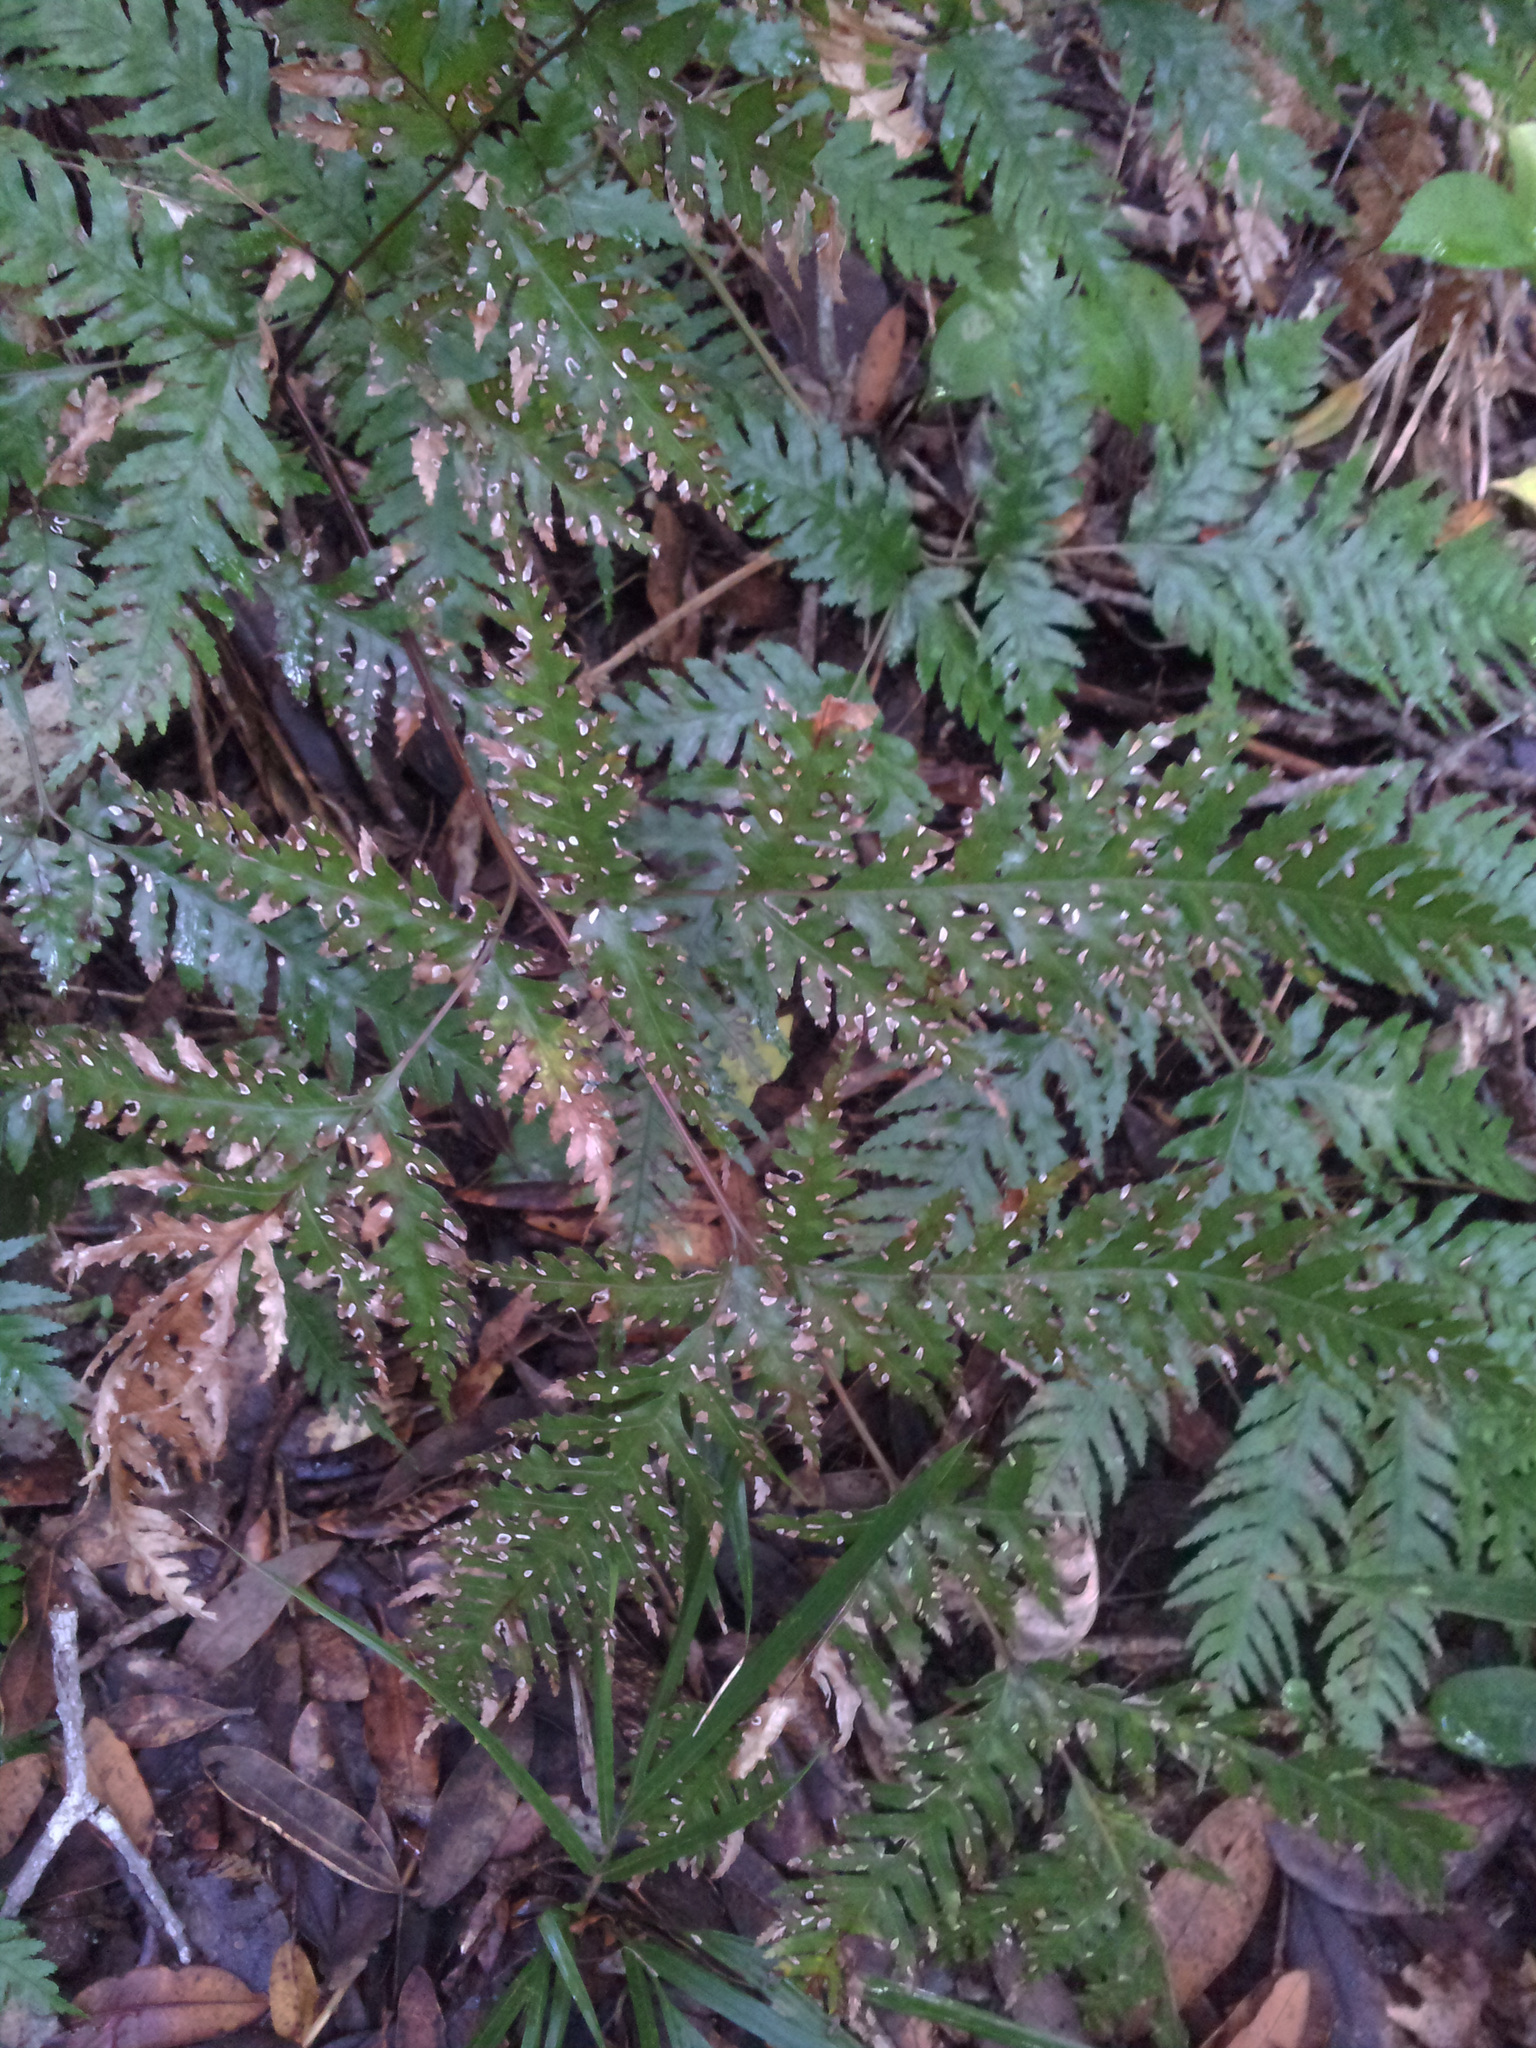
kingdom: Plantae
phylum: Tracheophyta
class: Polypodiopsida
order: Polypodiales
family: Pteridaceae
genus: Pteris
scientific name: Pteris carsei
